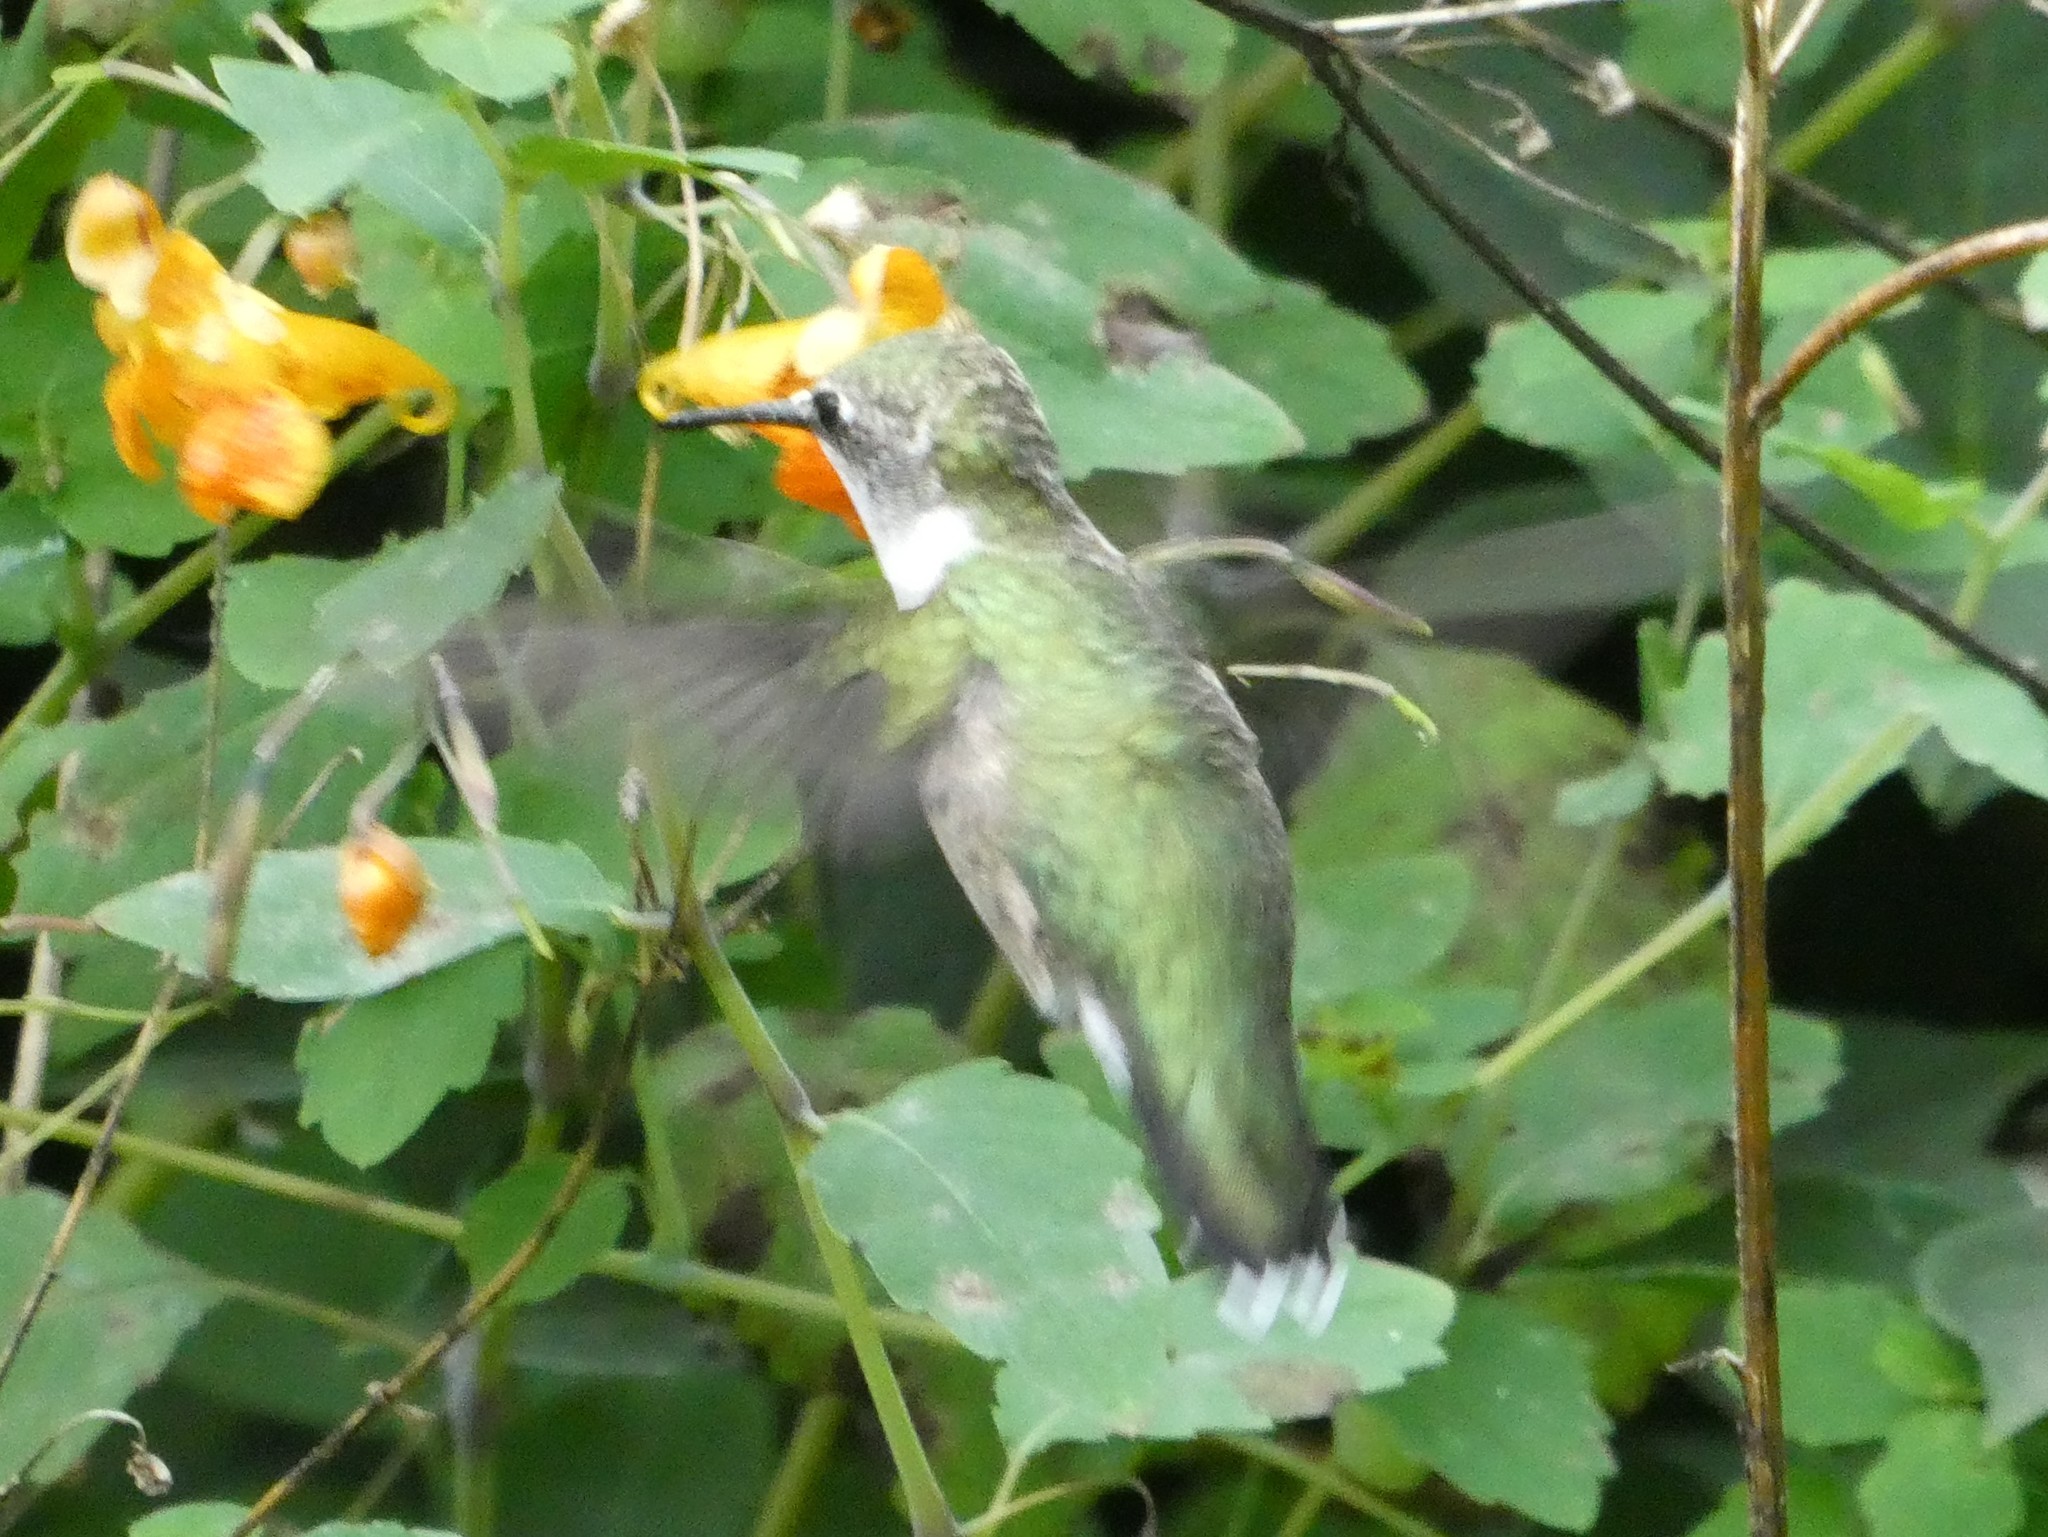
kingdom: Animalia
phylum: Chordata
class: Aves
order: Apodiformes
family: Trochilidae
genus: Archilochus
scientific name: Archilochus colubris
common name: Ruby-throated hummingbird
